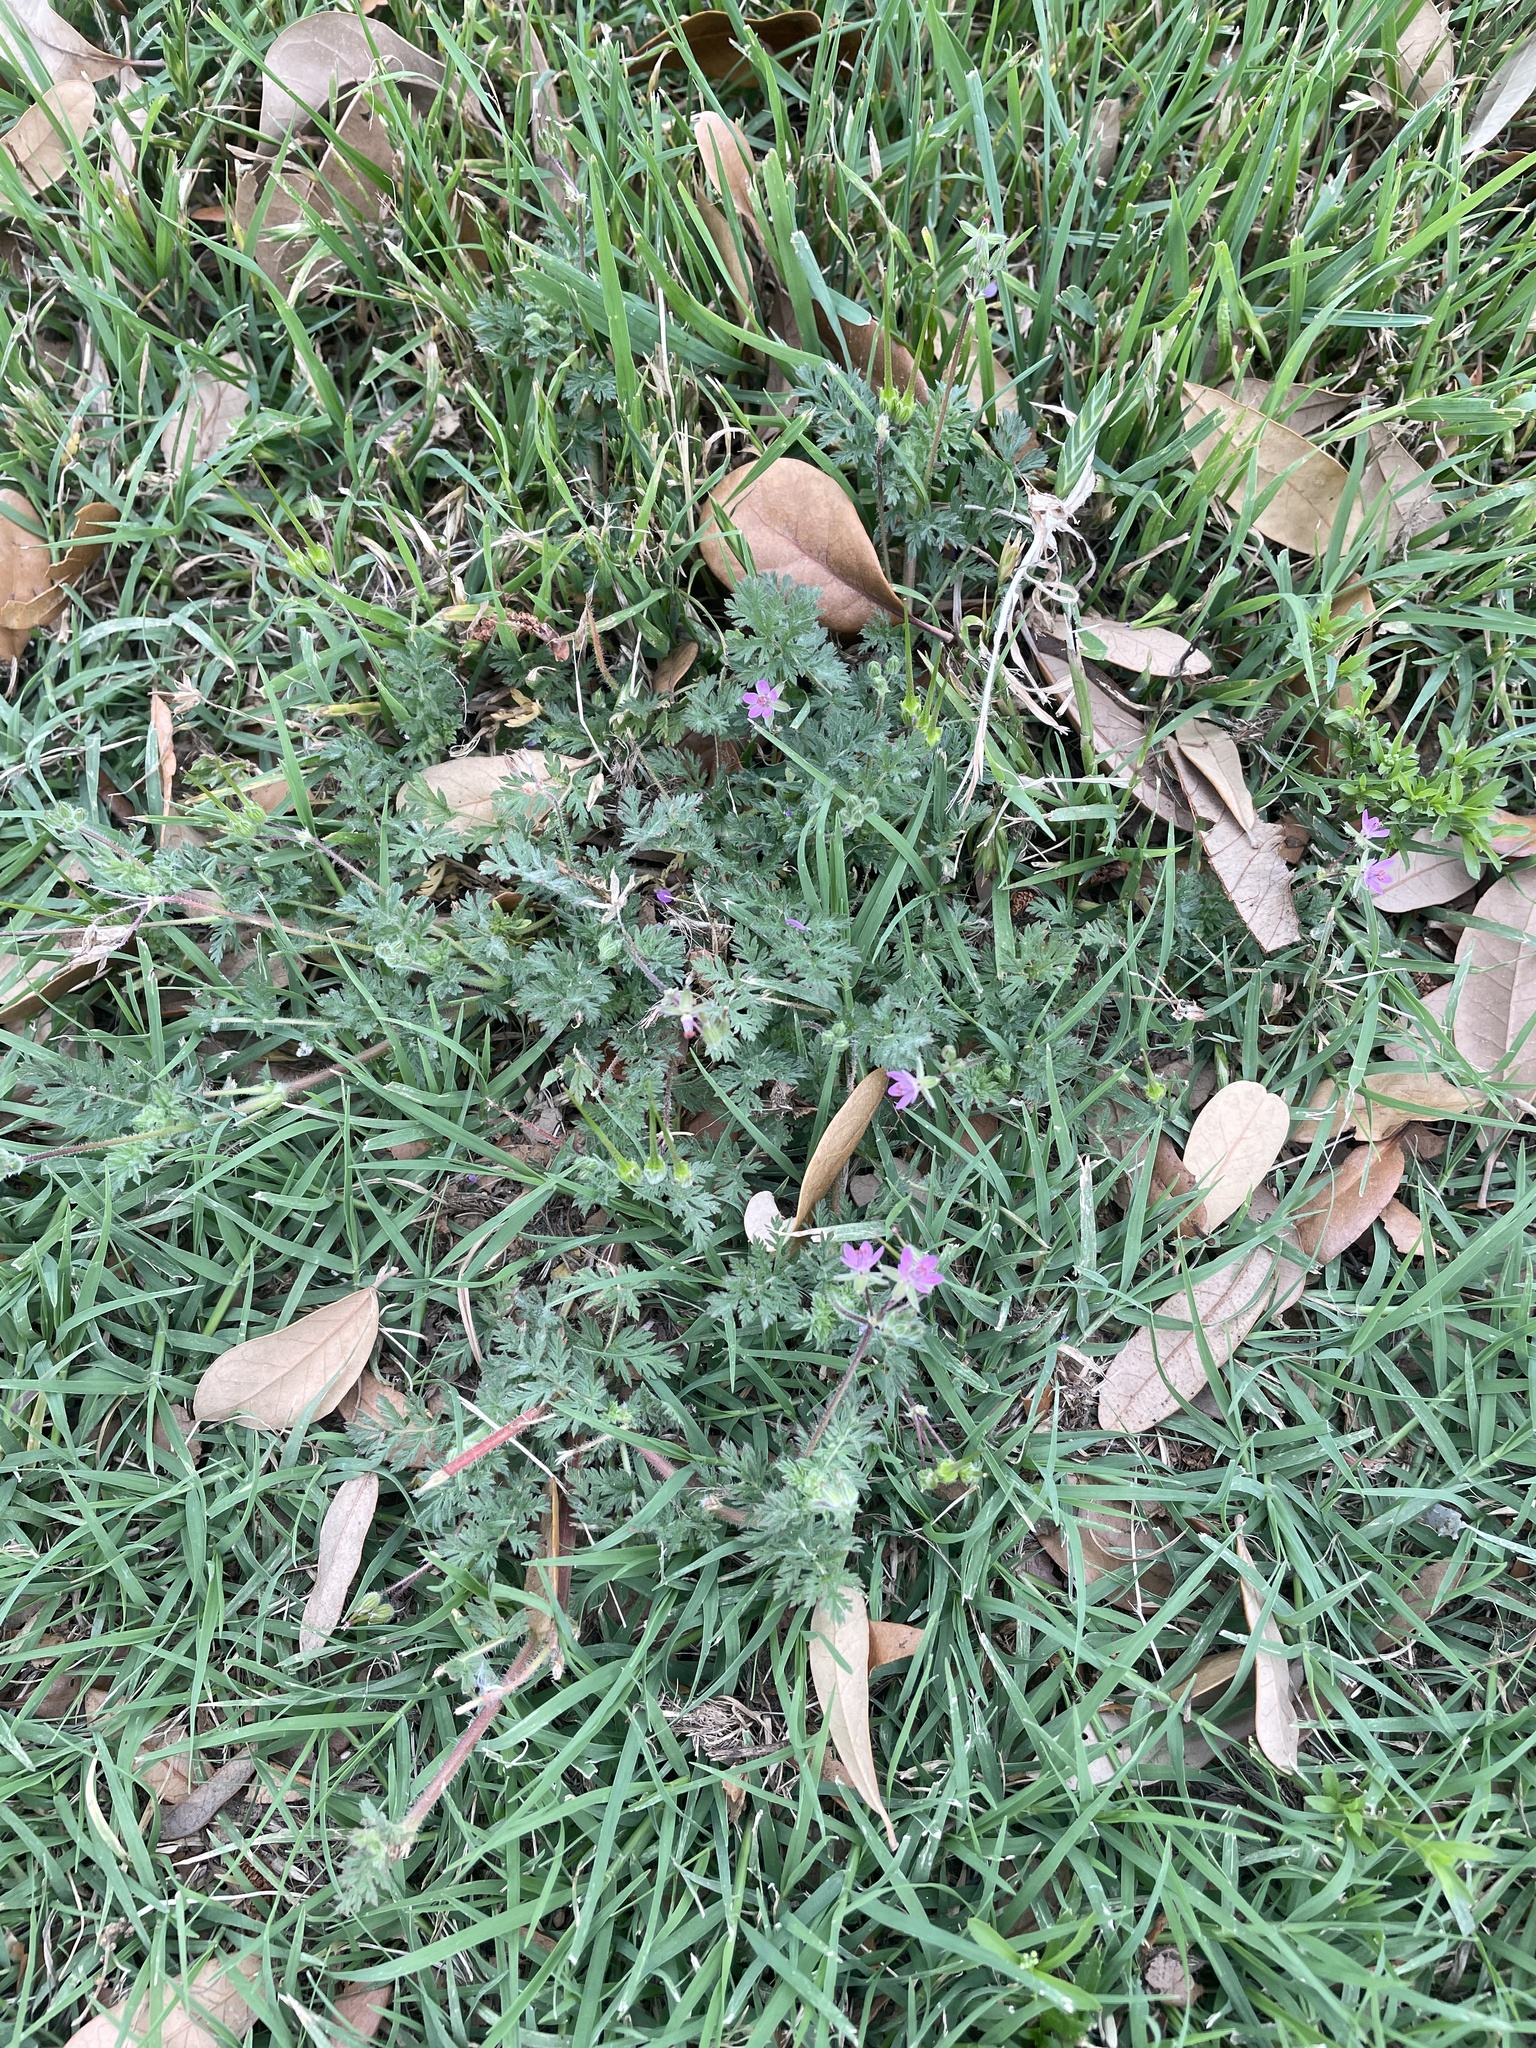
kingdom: Plantae
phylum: Tracheophyta
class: Magnoliopsida
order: Geraniales
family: Geraniaceae
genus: Erodium
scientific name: Erodium cicutarium
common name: Common stork's-bill
